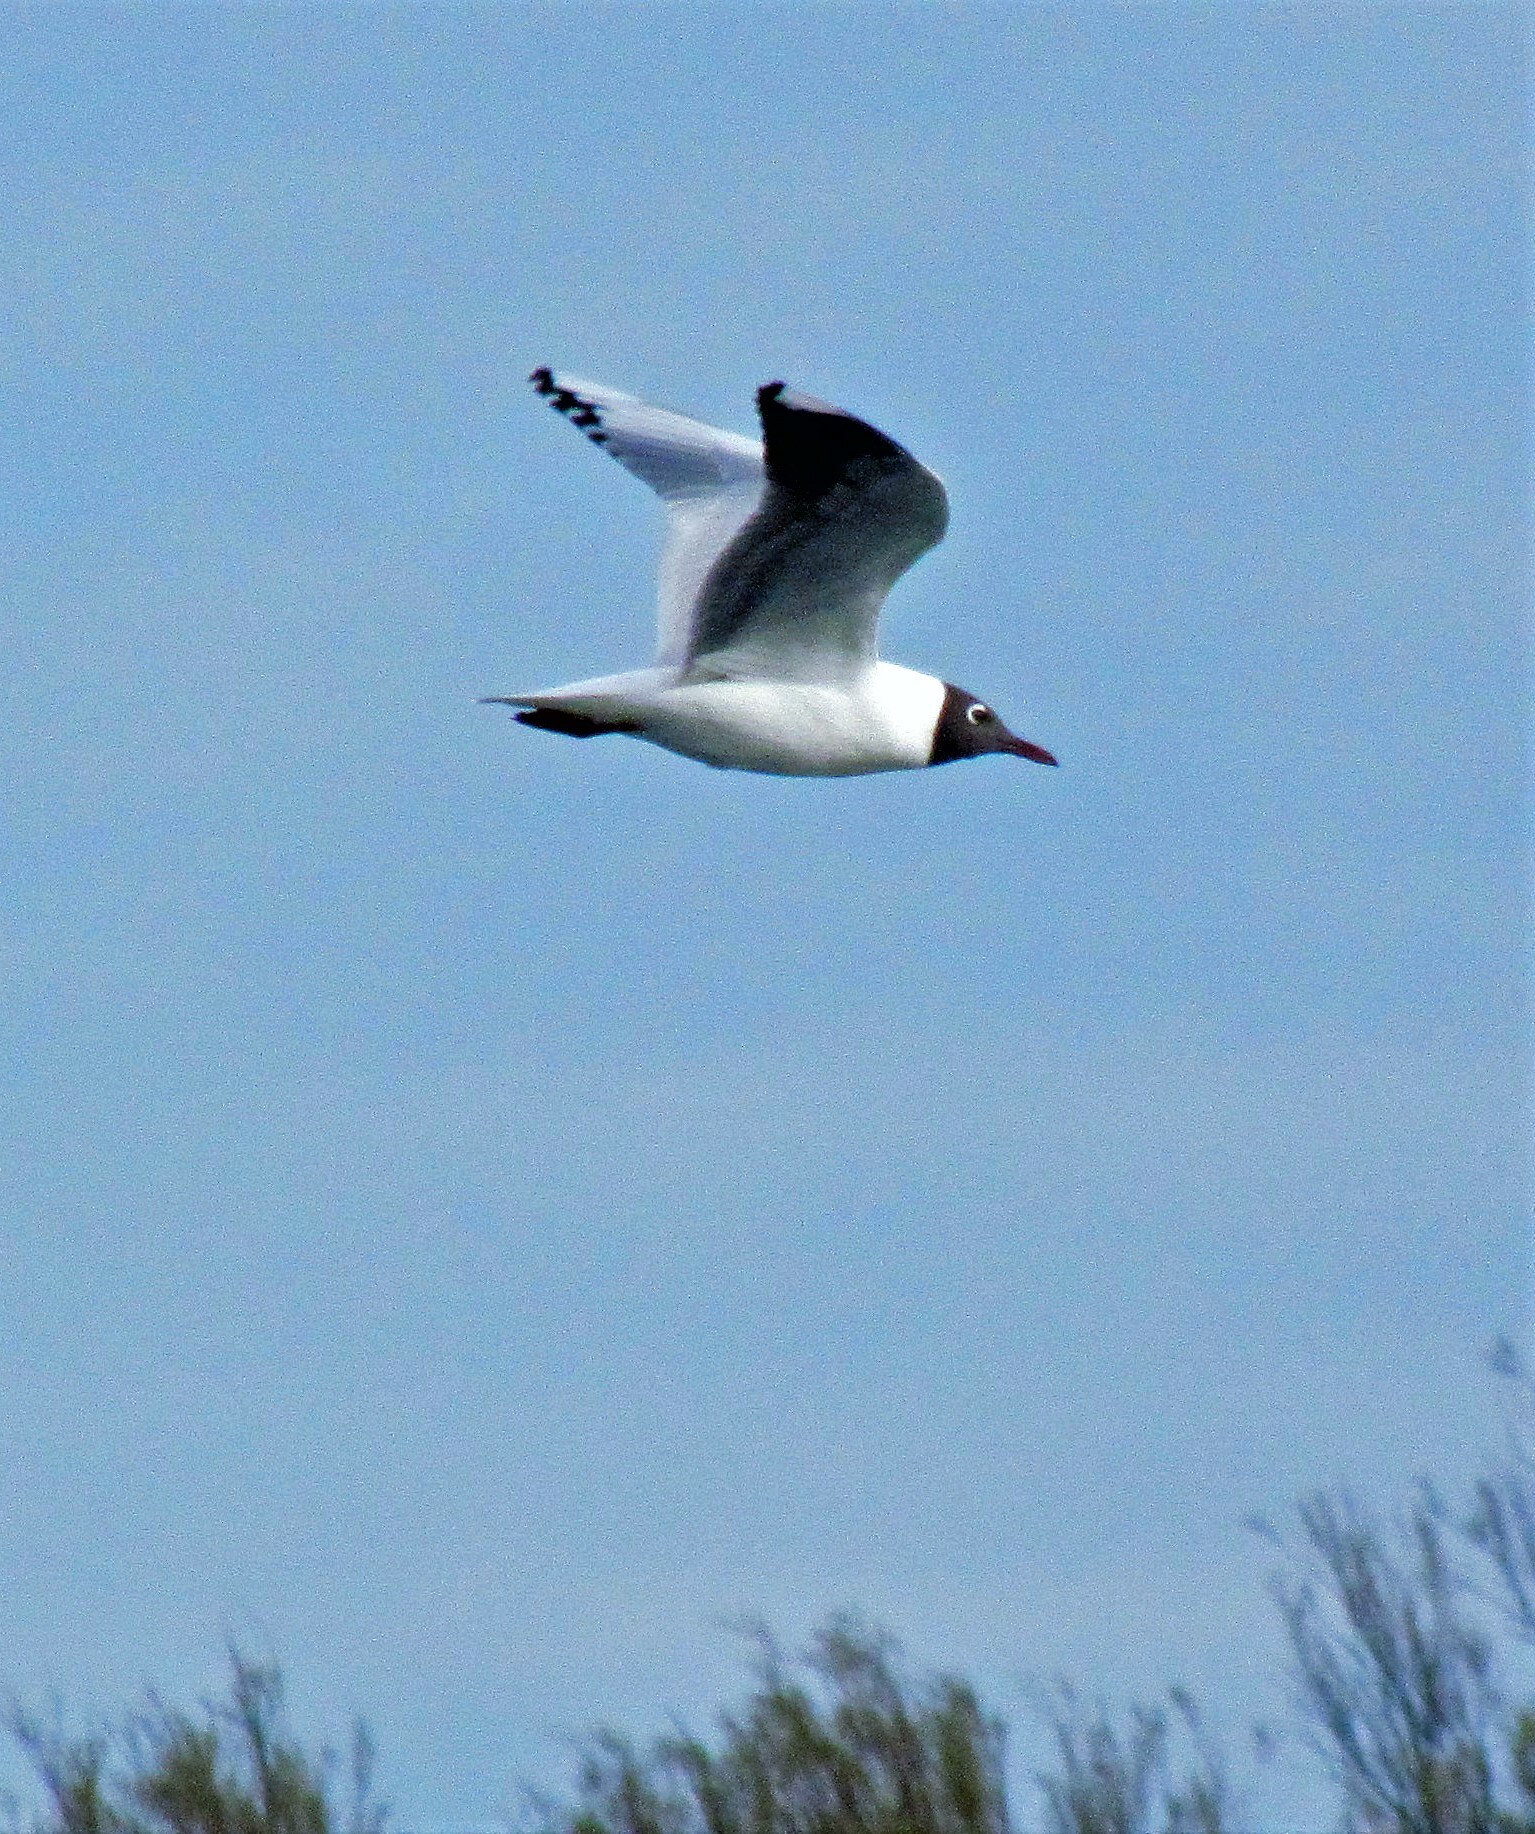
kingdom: Animalia
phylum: Chordata
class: Aves
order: Charadriiformes
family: Laridae
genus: Chroicocephalus
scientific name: Chroicocephalus maculipennis
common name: Brown-hooded gull
